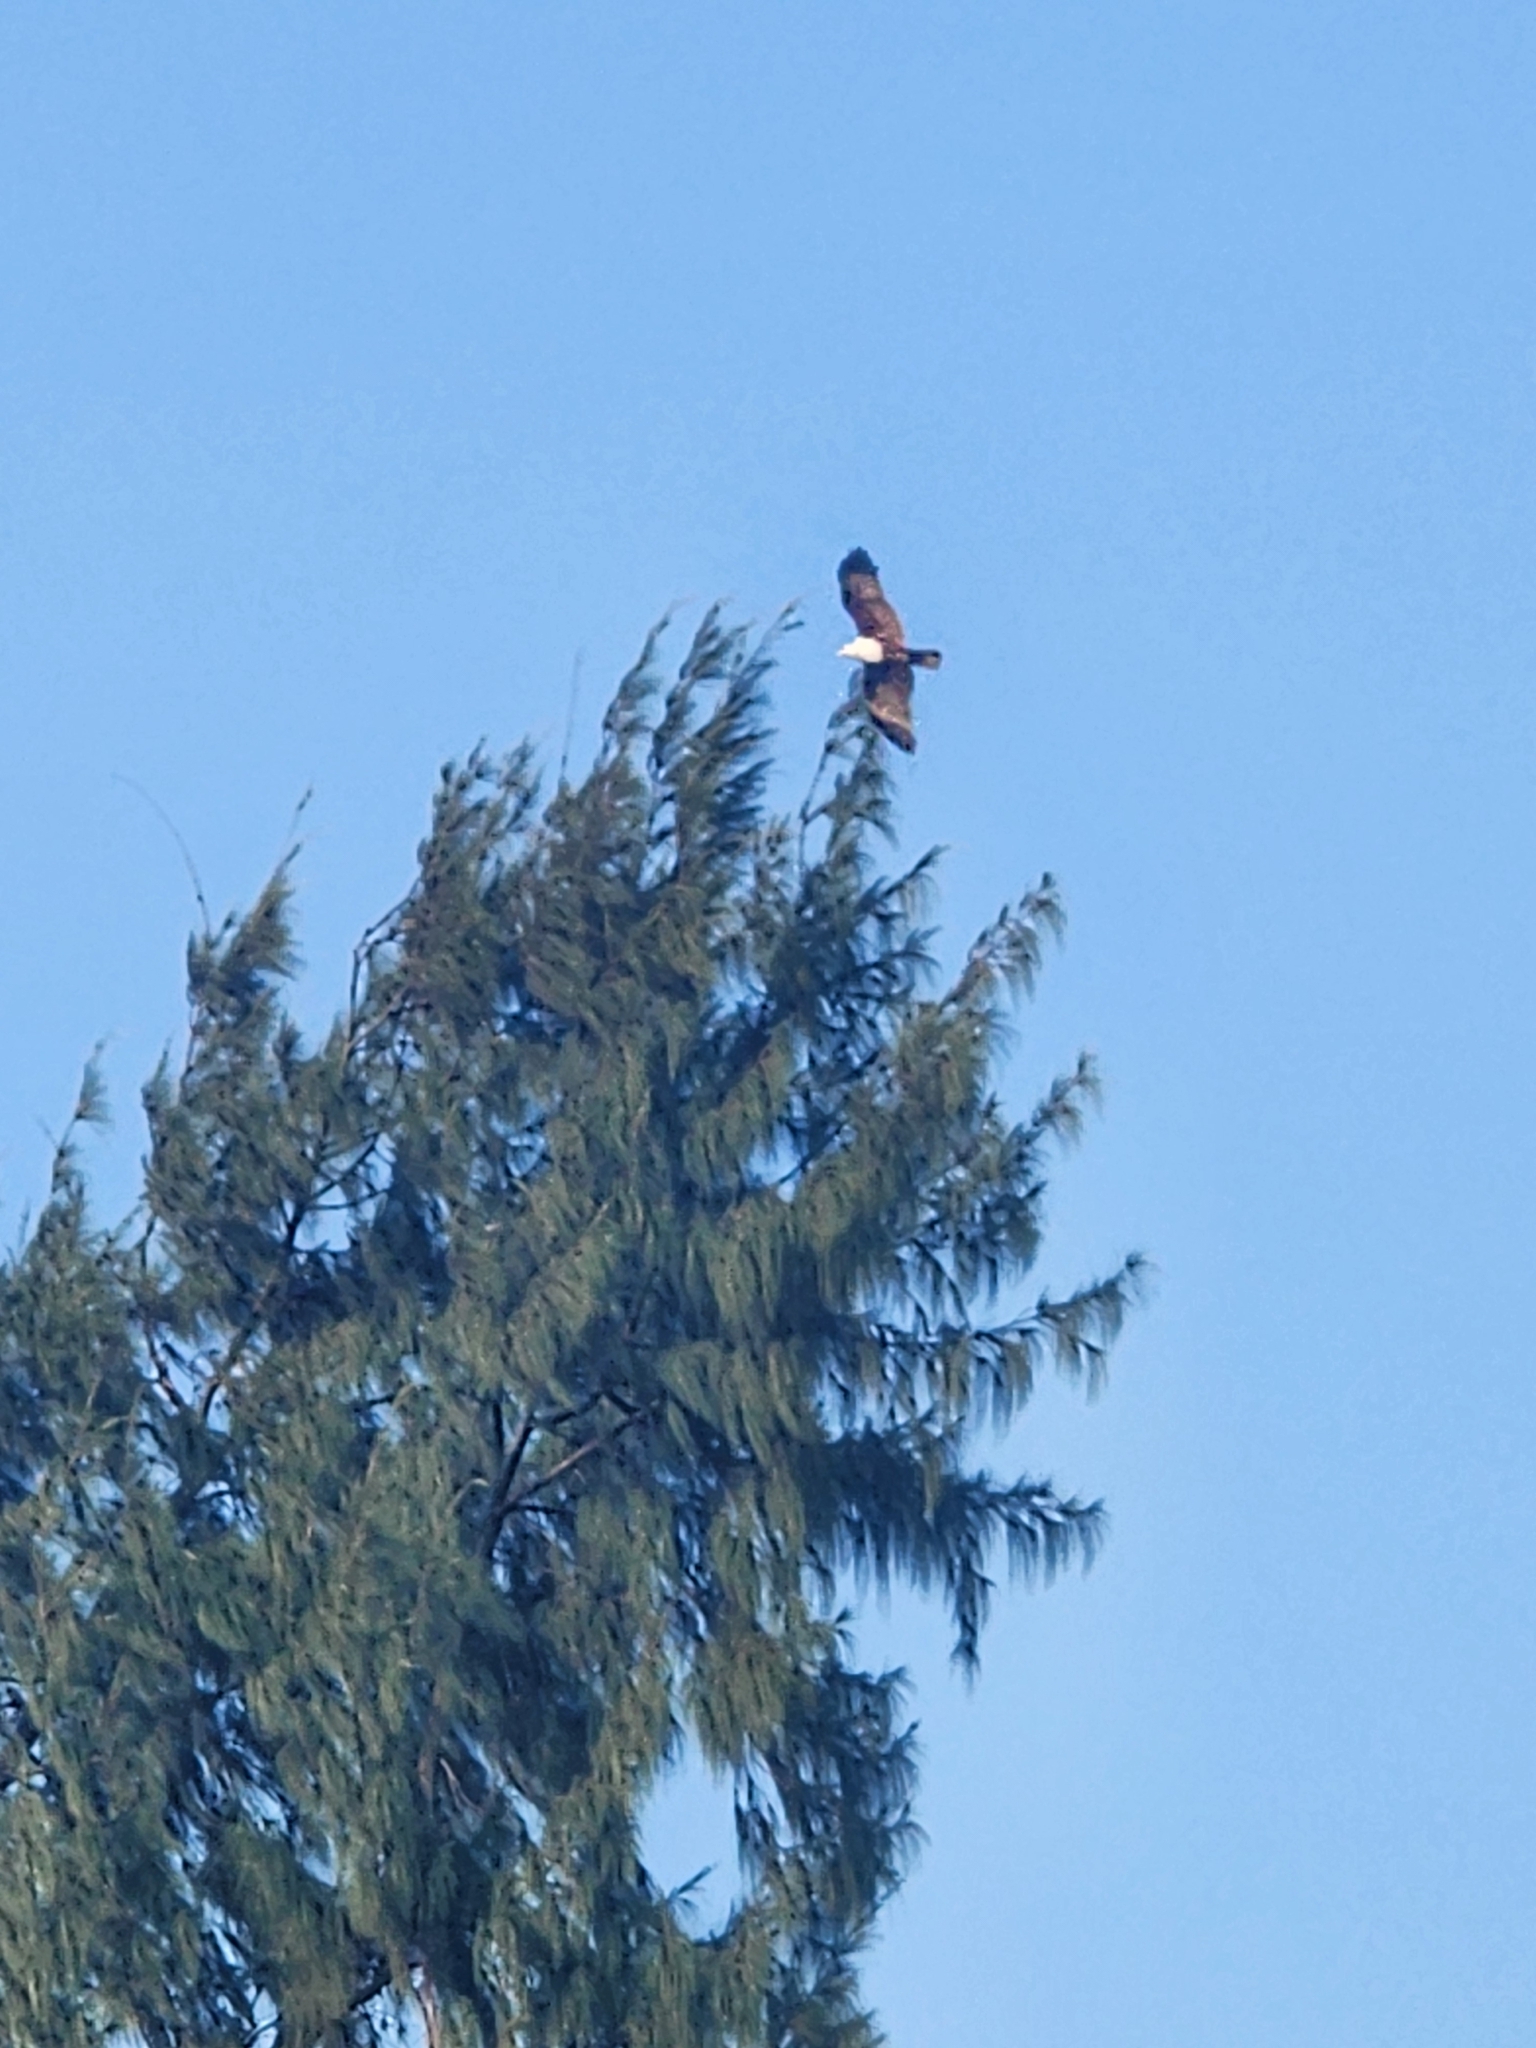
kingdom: Animalia
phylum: Chordata
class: Aves
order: Accipitriformes
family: Accipitridae
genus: Haliastur
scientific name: Haliastur indus
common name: Brahminy kite
